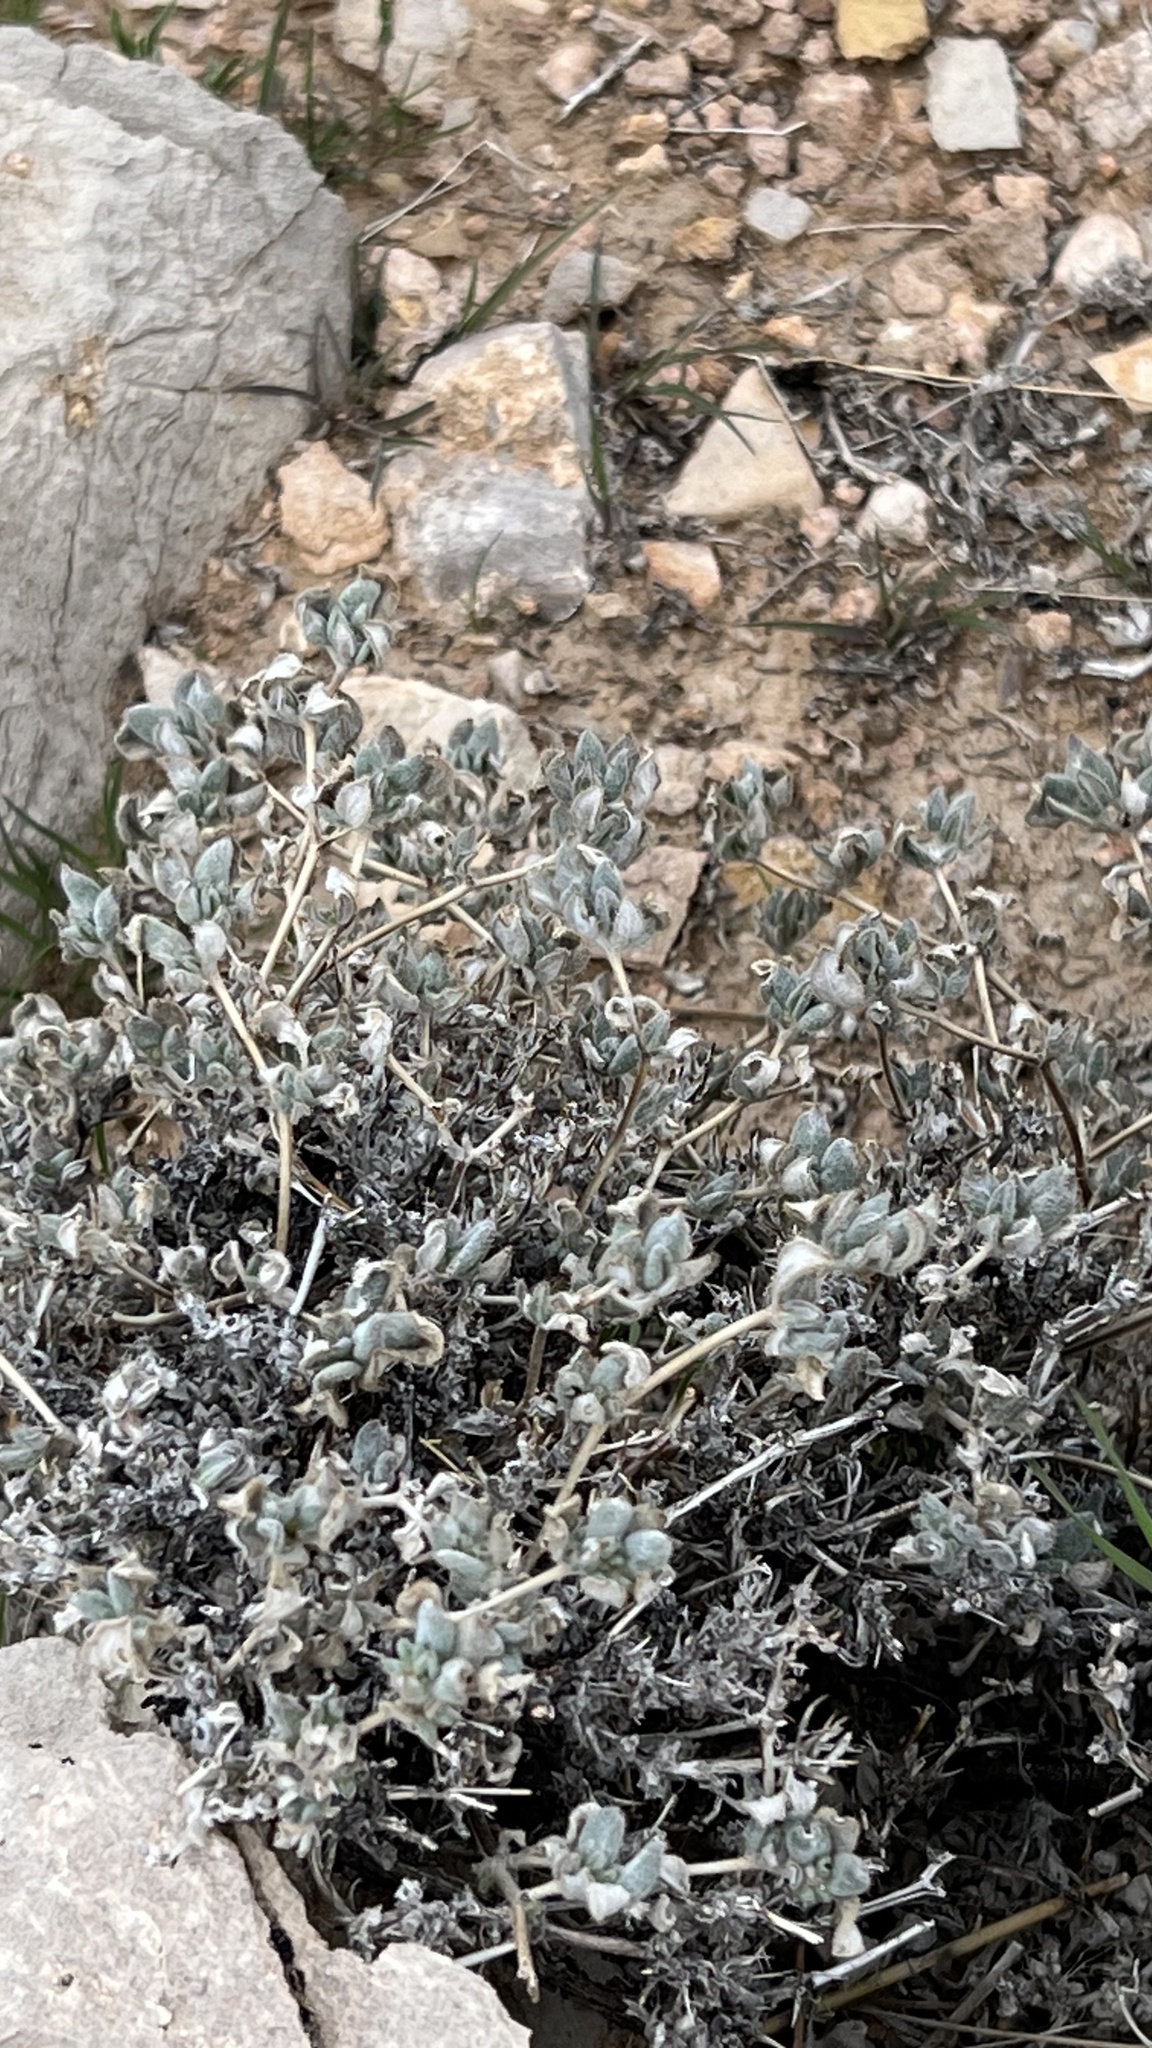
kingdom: Plantae
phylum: Tracheophyta
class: Magnoliopsida
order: Boraginales
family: Ehretiaceae
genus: Tiquilia
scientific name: Tiquilia canescens
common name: Hairy tiquilia
